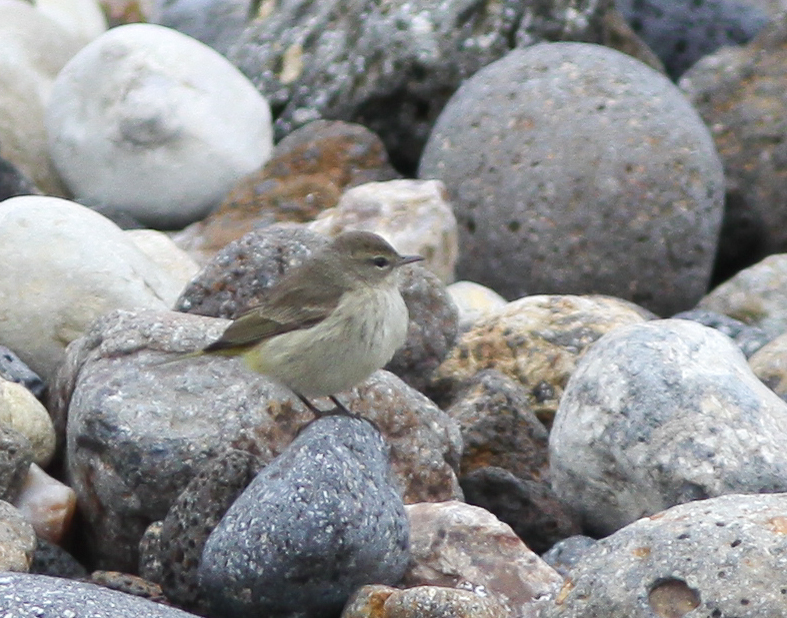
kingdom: Animalia
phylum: Chordata
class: Aves
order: Passeriformes
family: Parulidae
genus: Setophaga
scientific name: Setophaga palmarum
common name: Palm warbler
